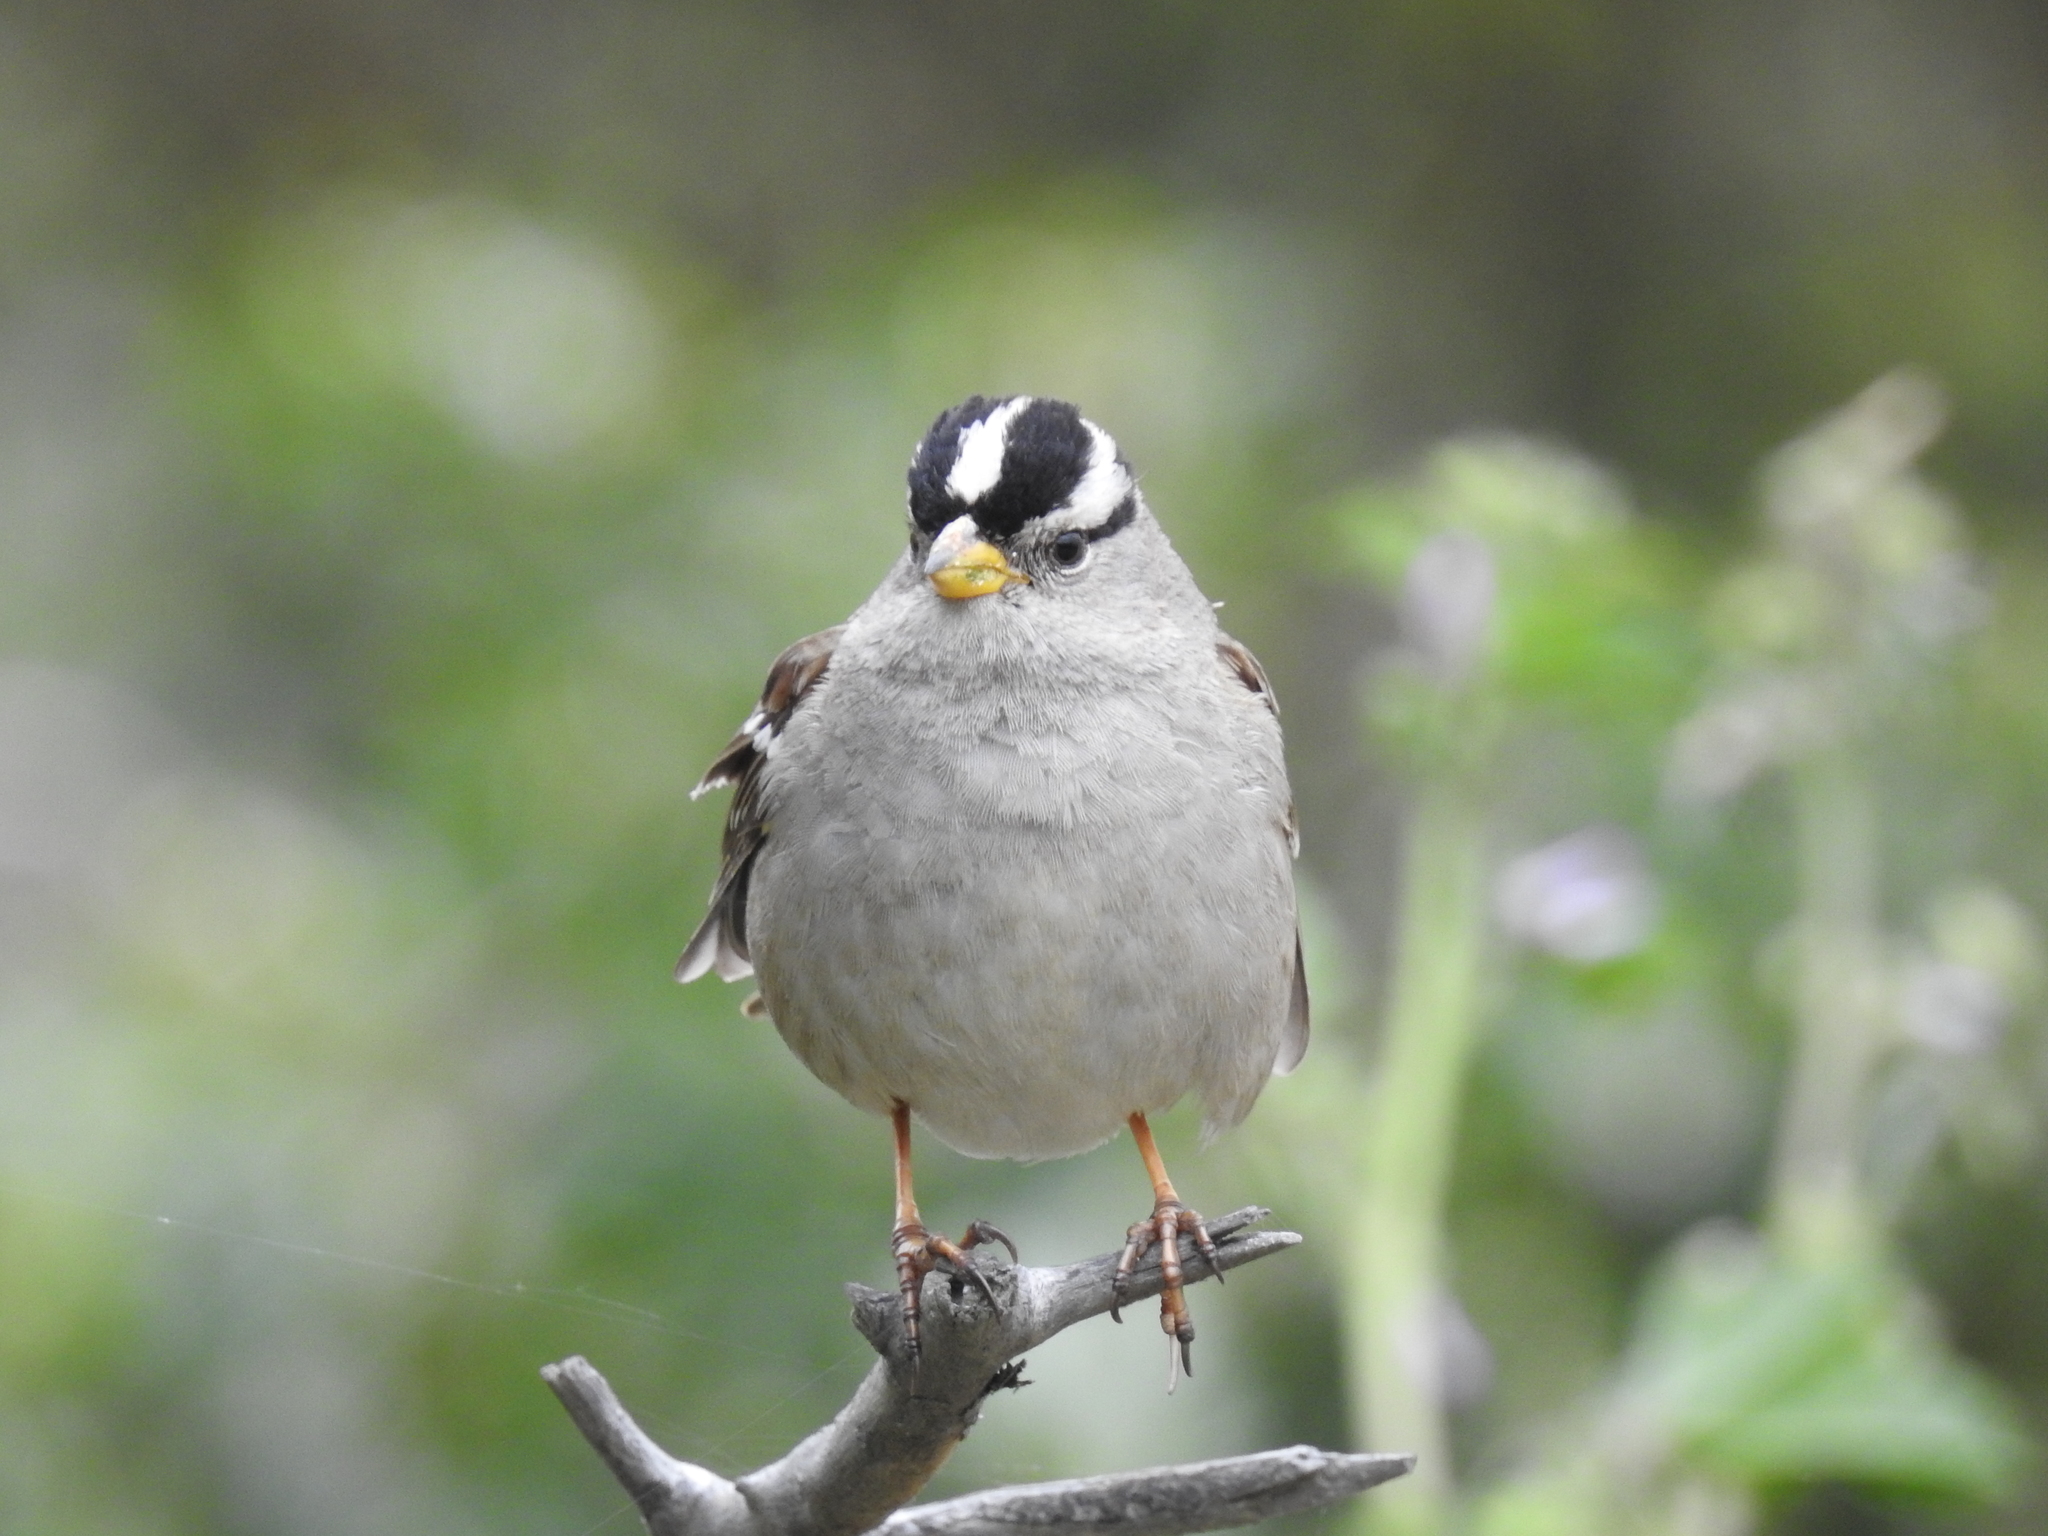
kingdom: Animalia
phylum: Chordata
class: Aves
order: Passeriformes
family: Passerellidae
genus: Zonotrichia
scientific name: Zonotrichia leucophrys
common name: White-crowned sparrow
